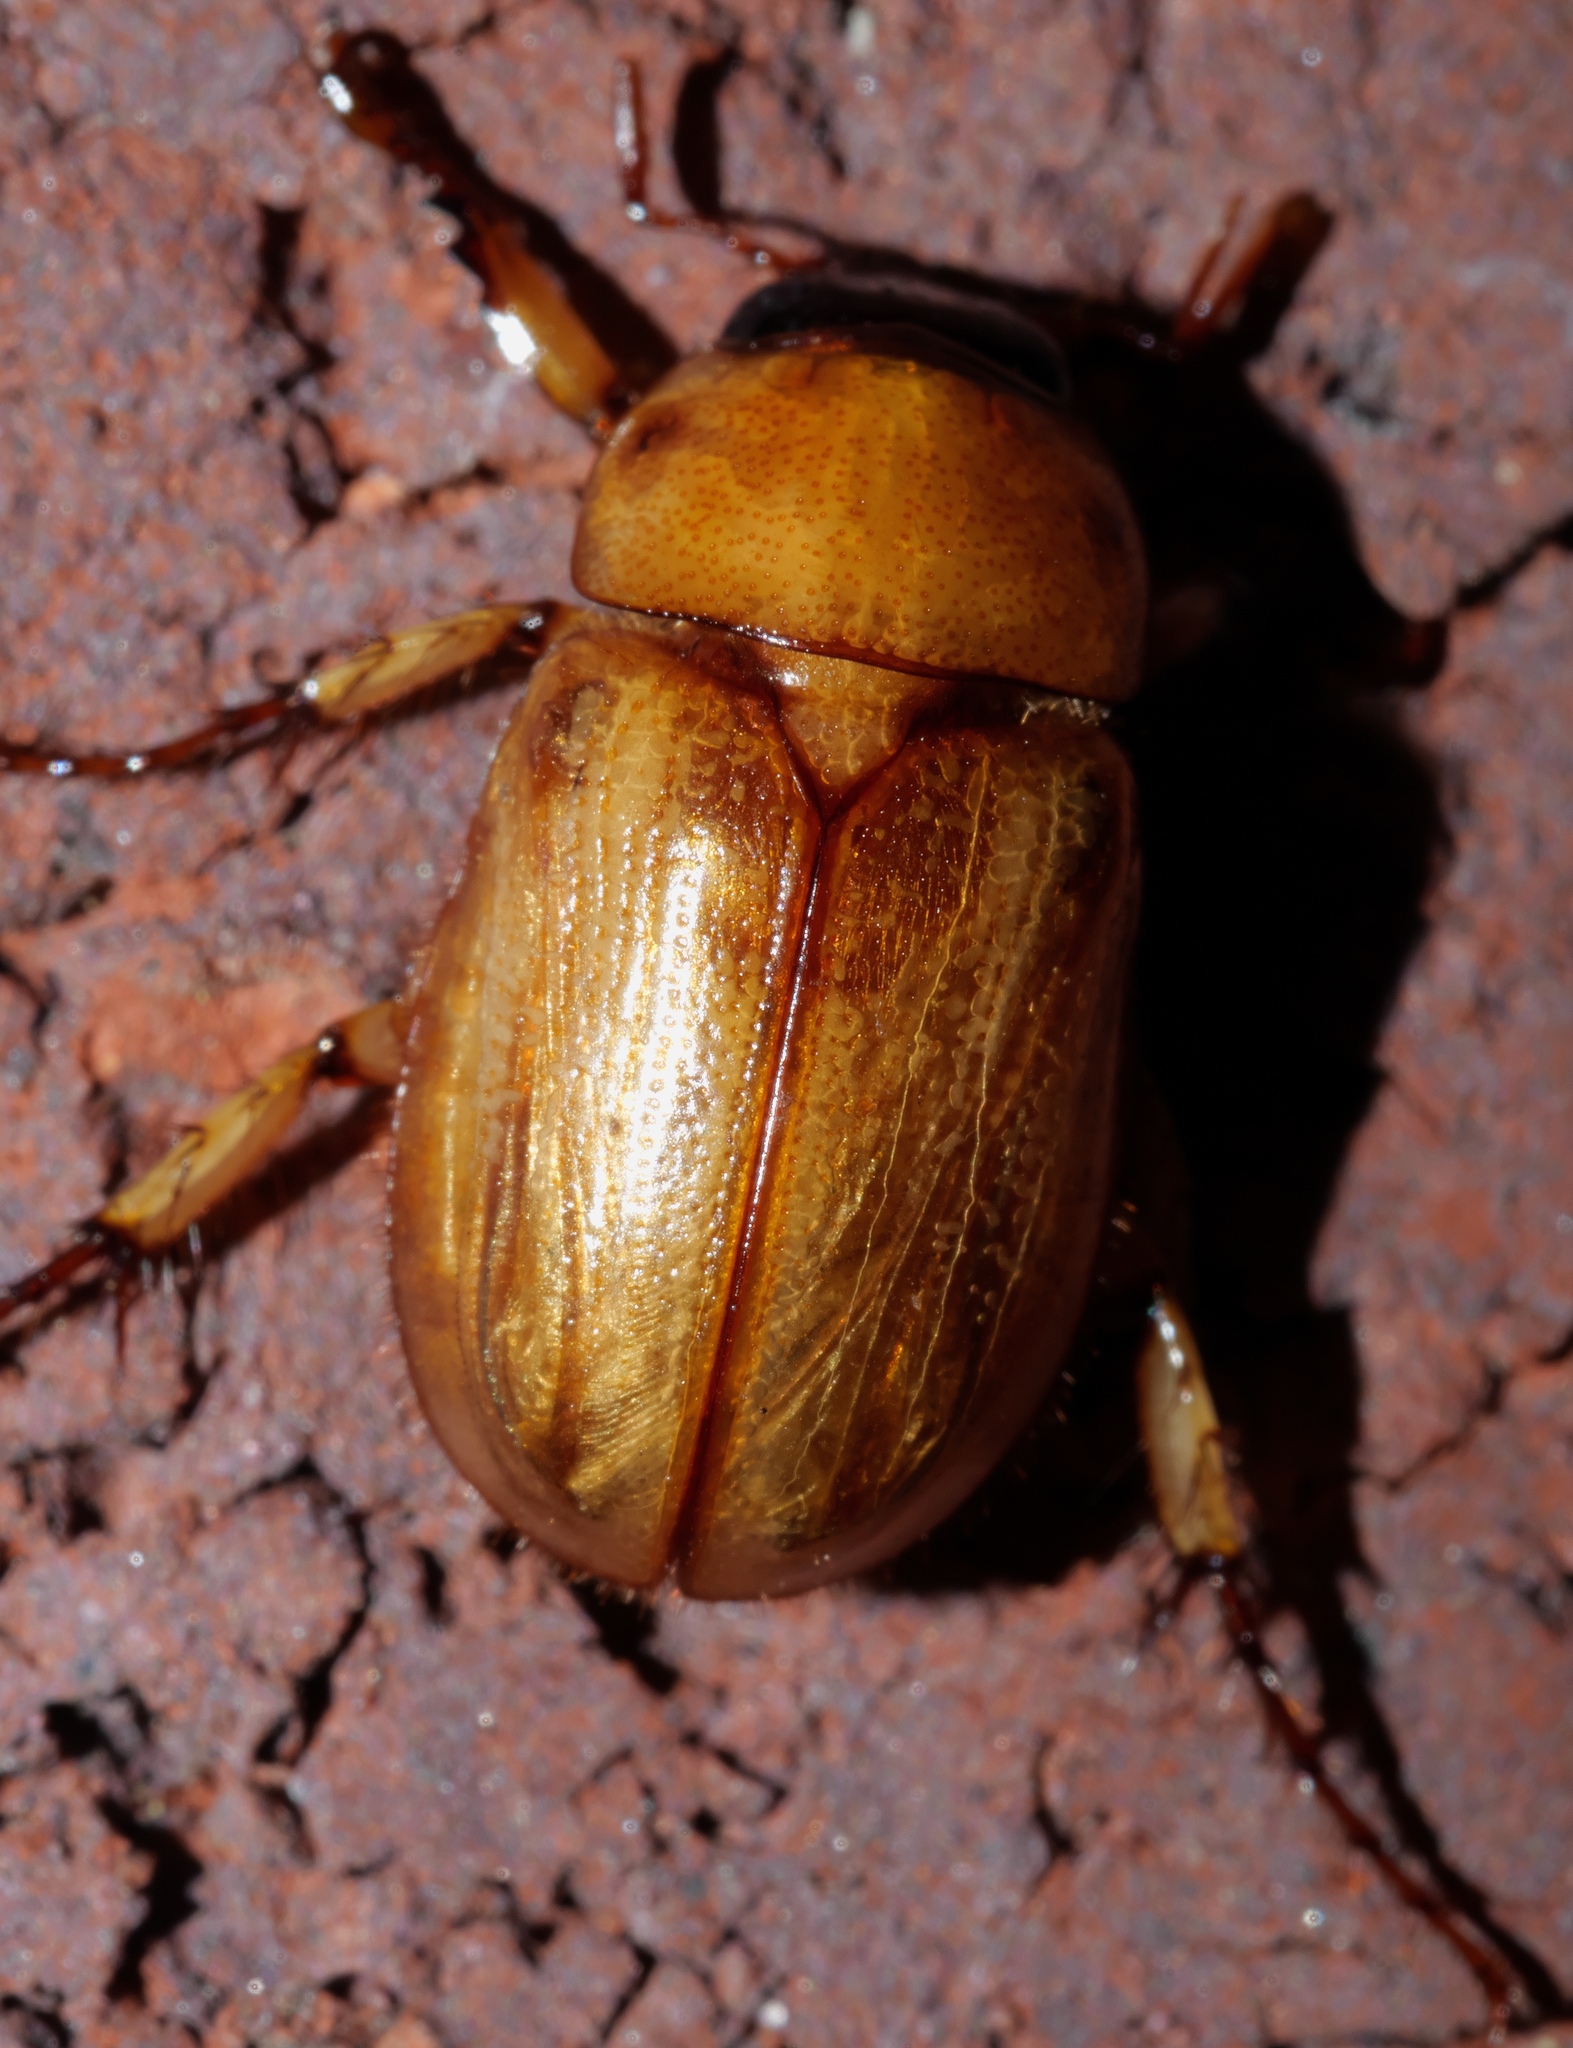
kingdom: Animalia
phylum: Arthropoda
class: Insecta
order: Coleoptera
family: Scarabaeidae
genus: Cyclocephala
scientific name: Cyclocephala lurida
